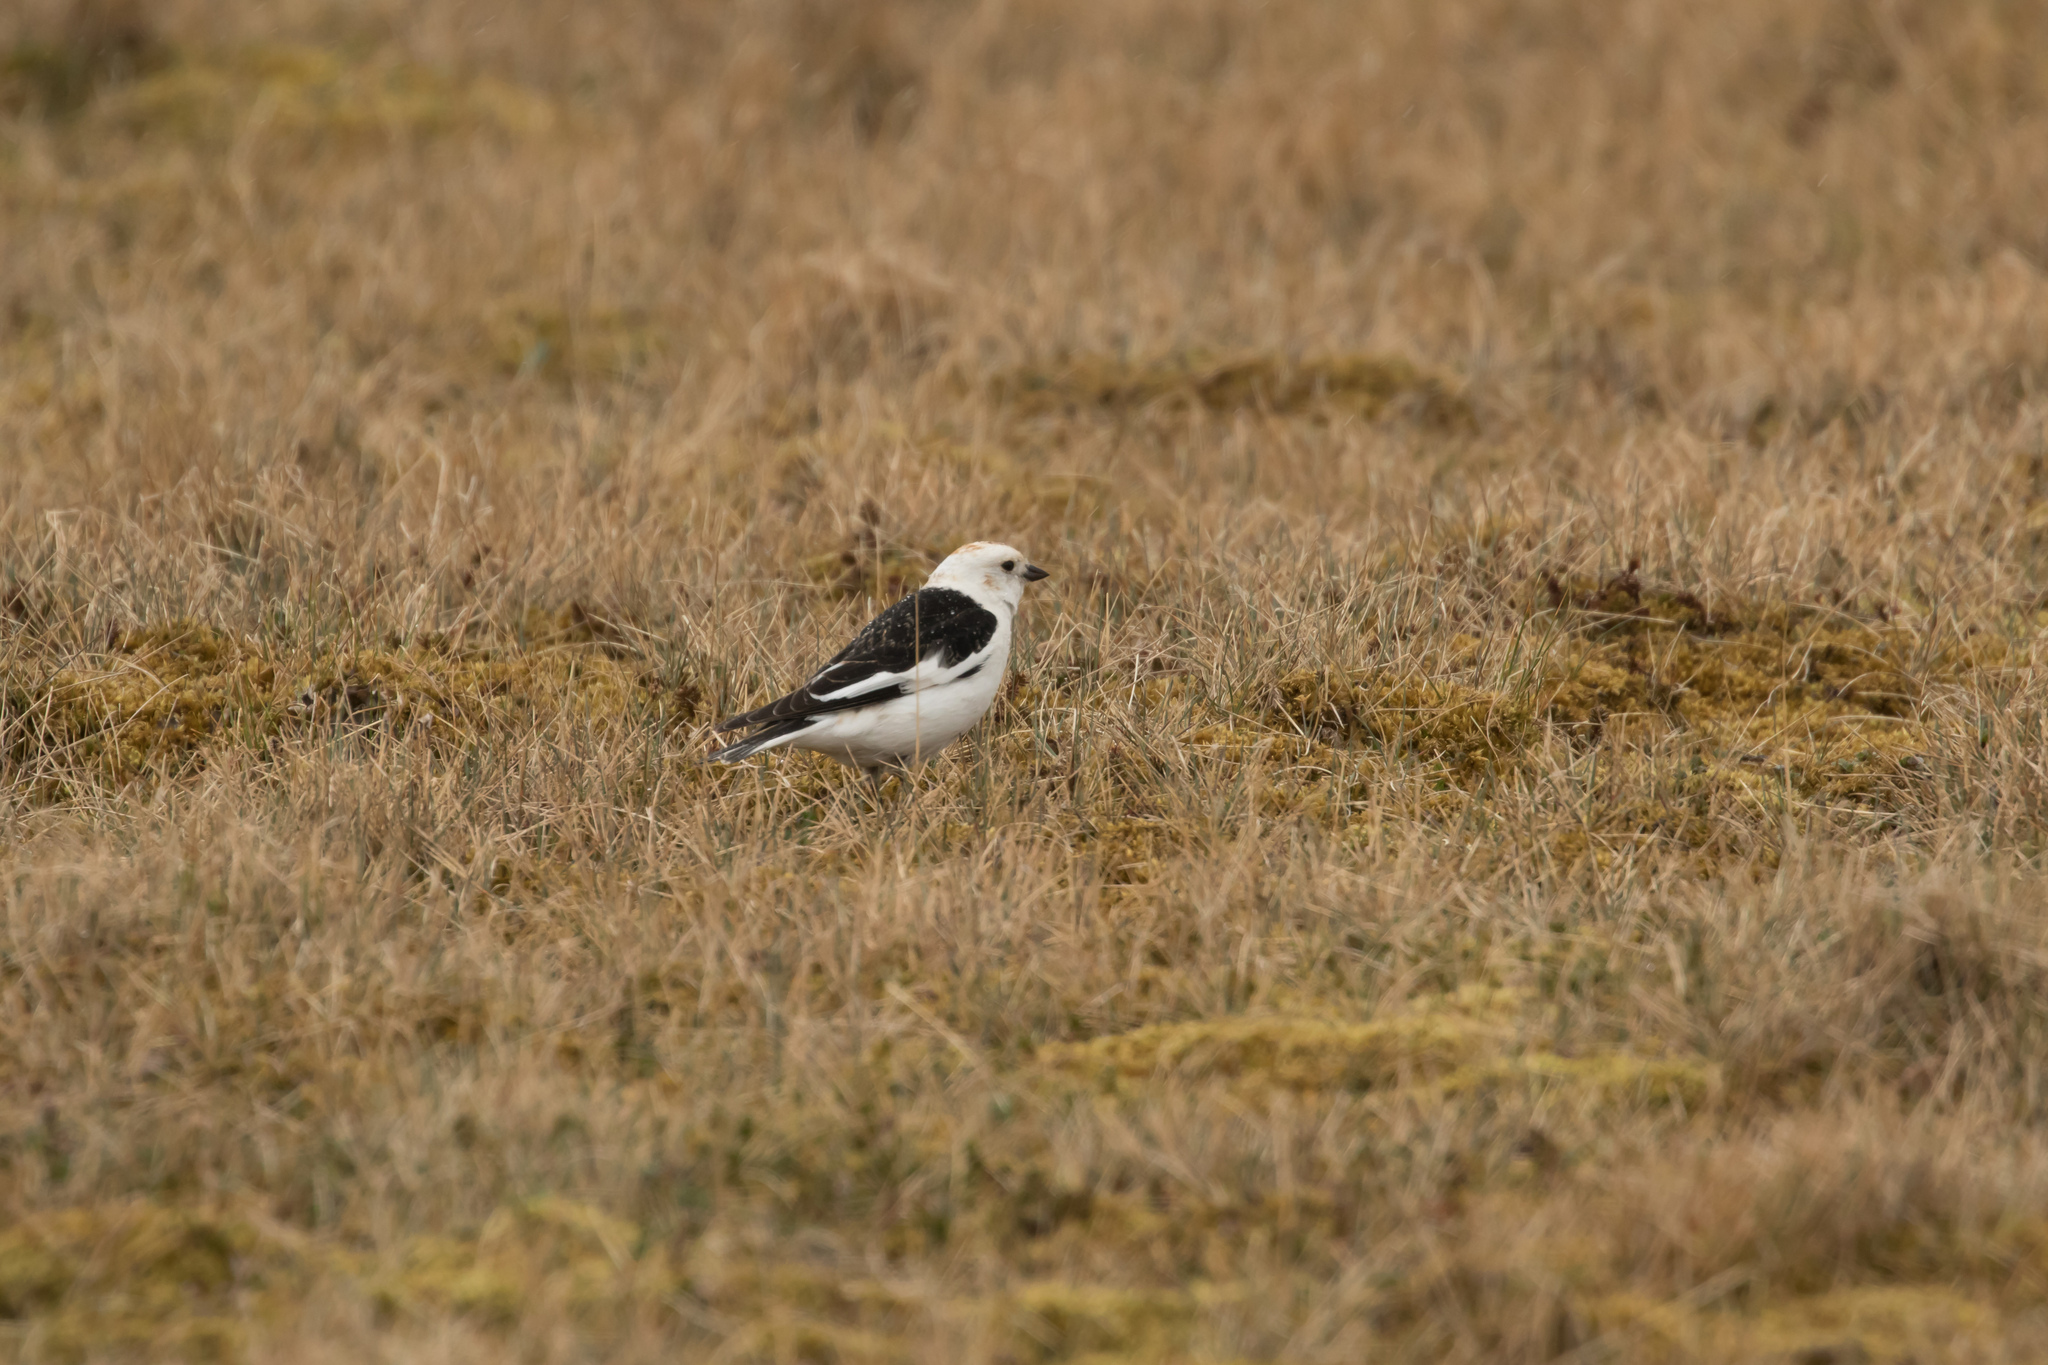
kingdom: Animalia
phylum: Chordata
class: Aves
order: Passeriformes
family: Calcariidae
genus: Plectrophenax
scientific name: Plectrophenax nivalis
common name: Snow bunting
